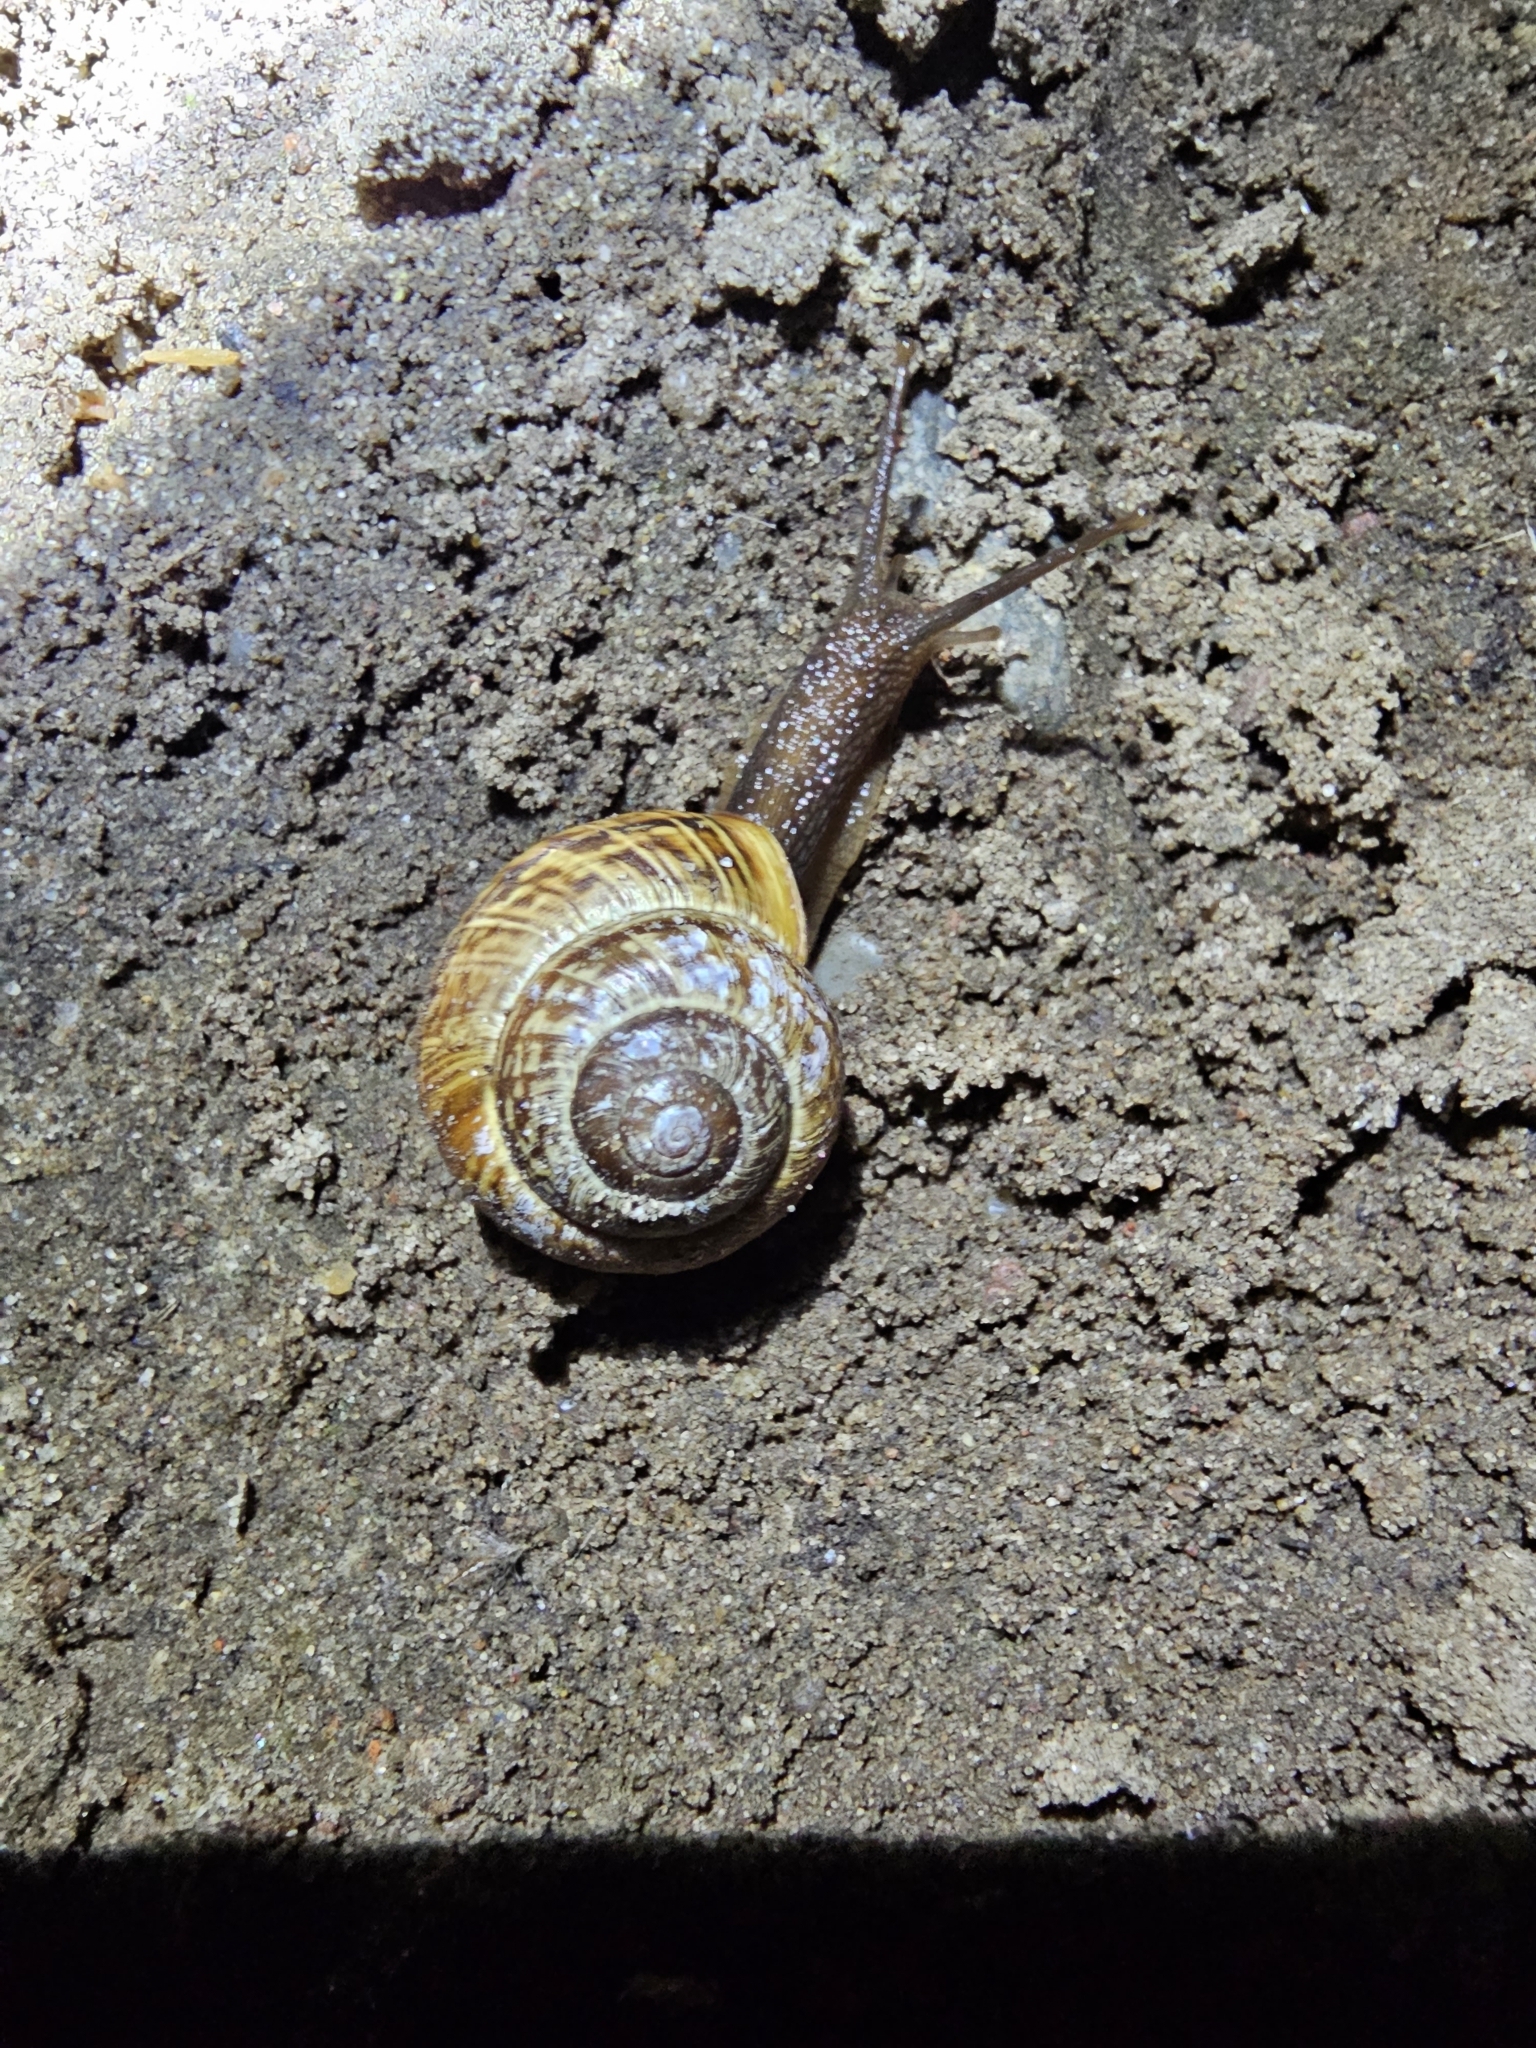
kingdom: Animalia
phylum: Mollusca
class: Gastropoda
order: Stylommatophora
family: Helicidae
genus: Arianta
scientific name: Arianta arbustorum
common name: Copse snail
